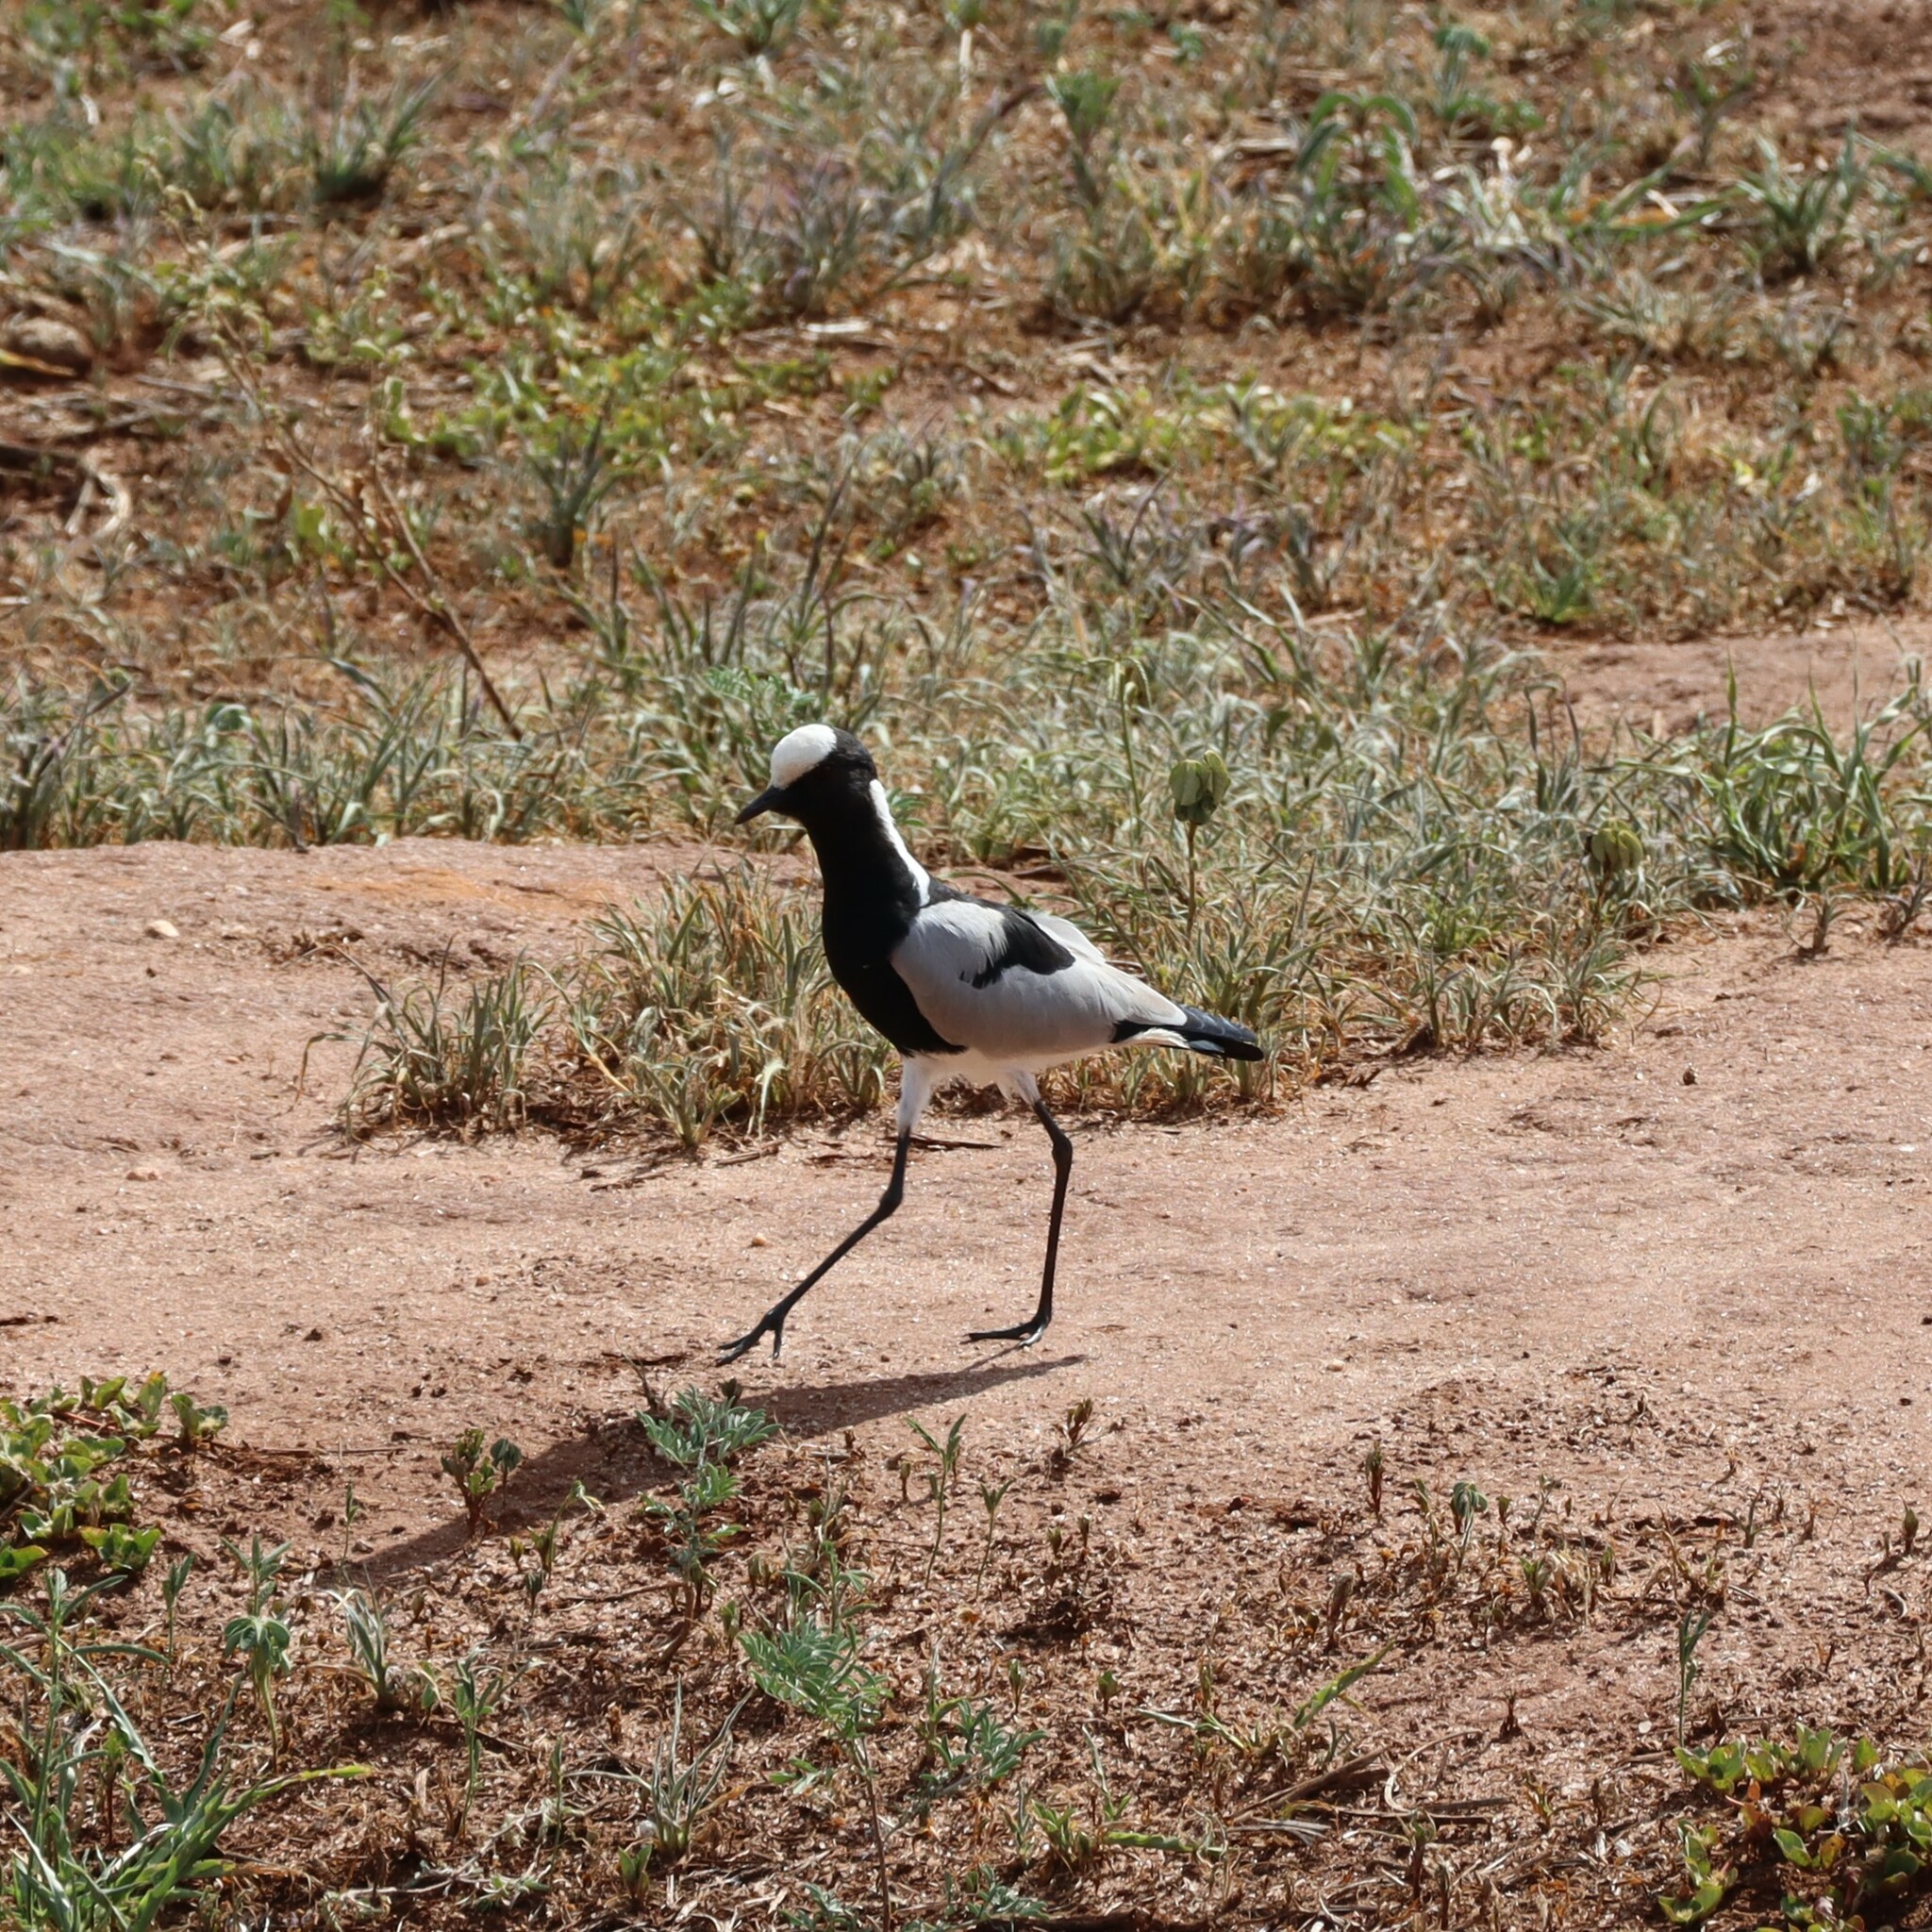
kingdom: Animalia
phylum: Chordata
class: Aves
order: Charadriiformes
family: Charadriidae
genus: Vanellus
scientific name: Vanellus armatus
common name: Blacksmith lapwing
